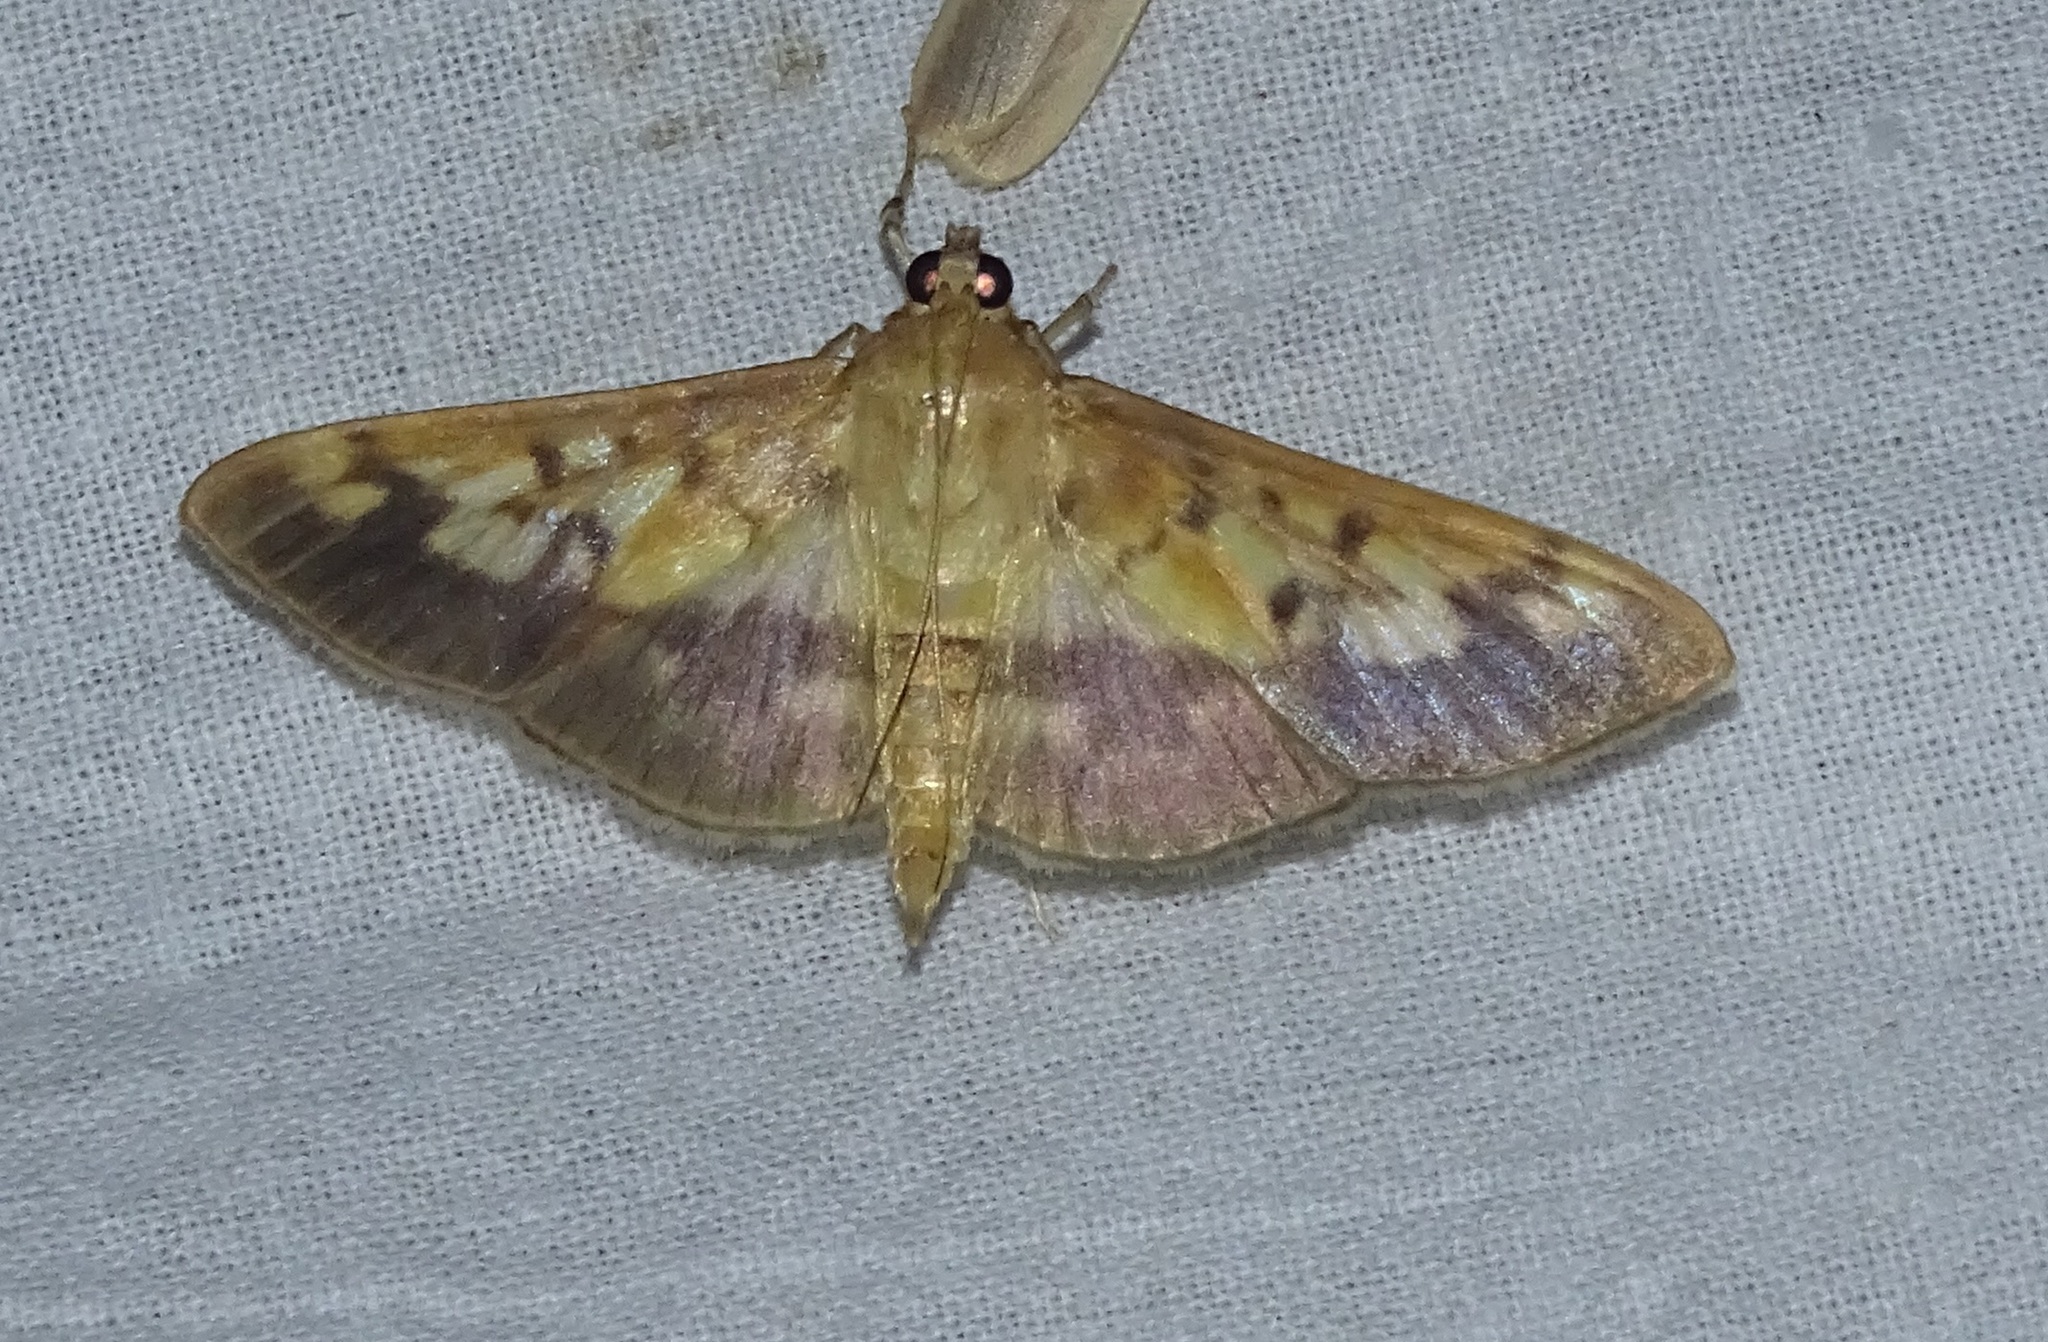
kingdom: Animalia
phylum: Arthropoda
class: Insecta
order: Lepidoptera
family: Crambidae
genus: Patania
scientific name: Patania
